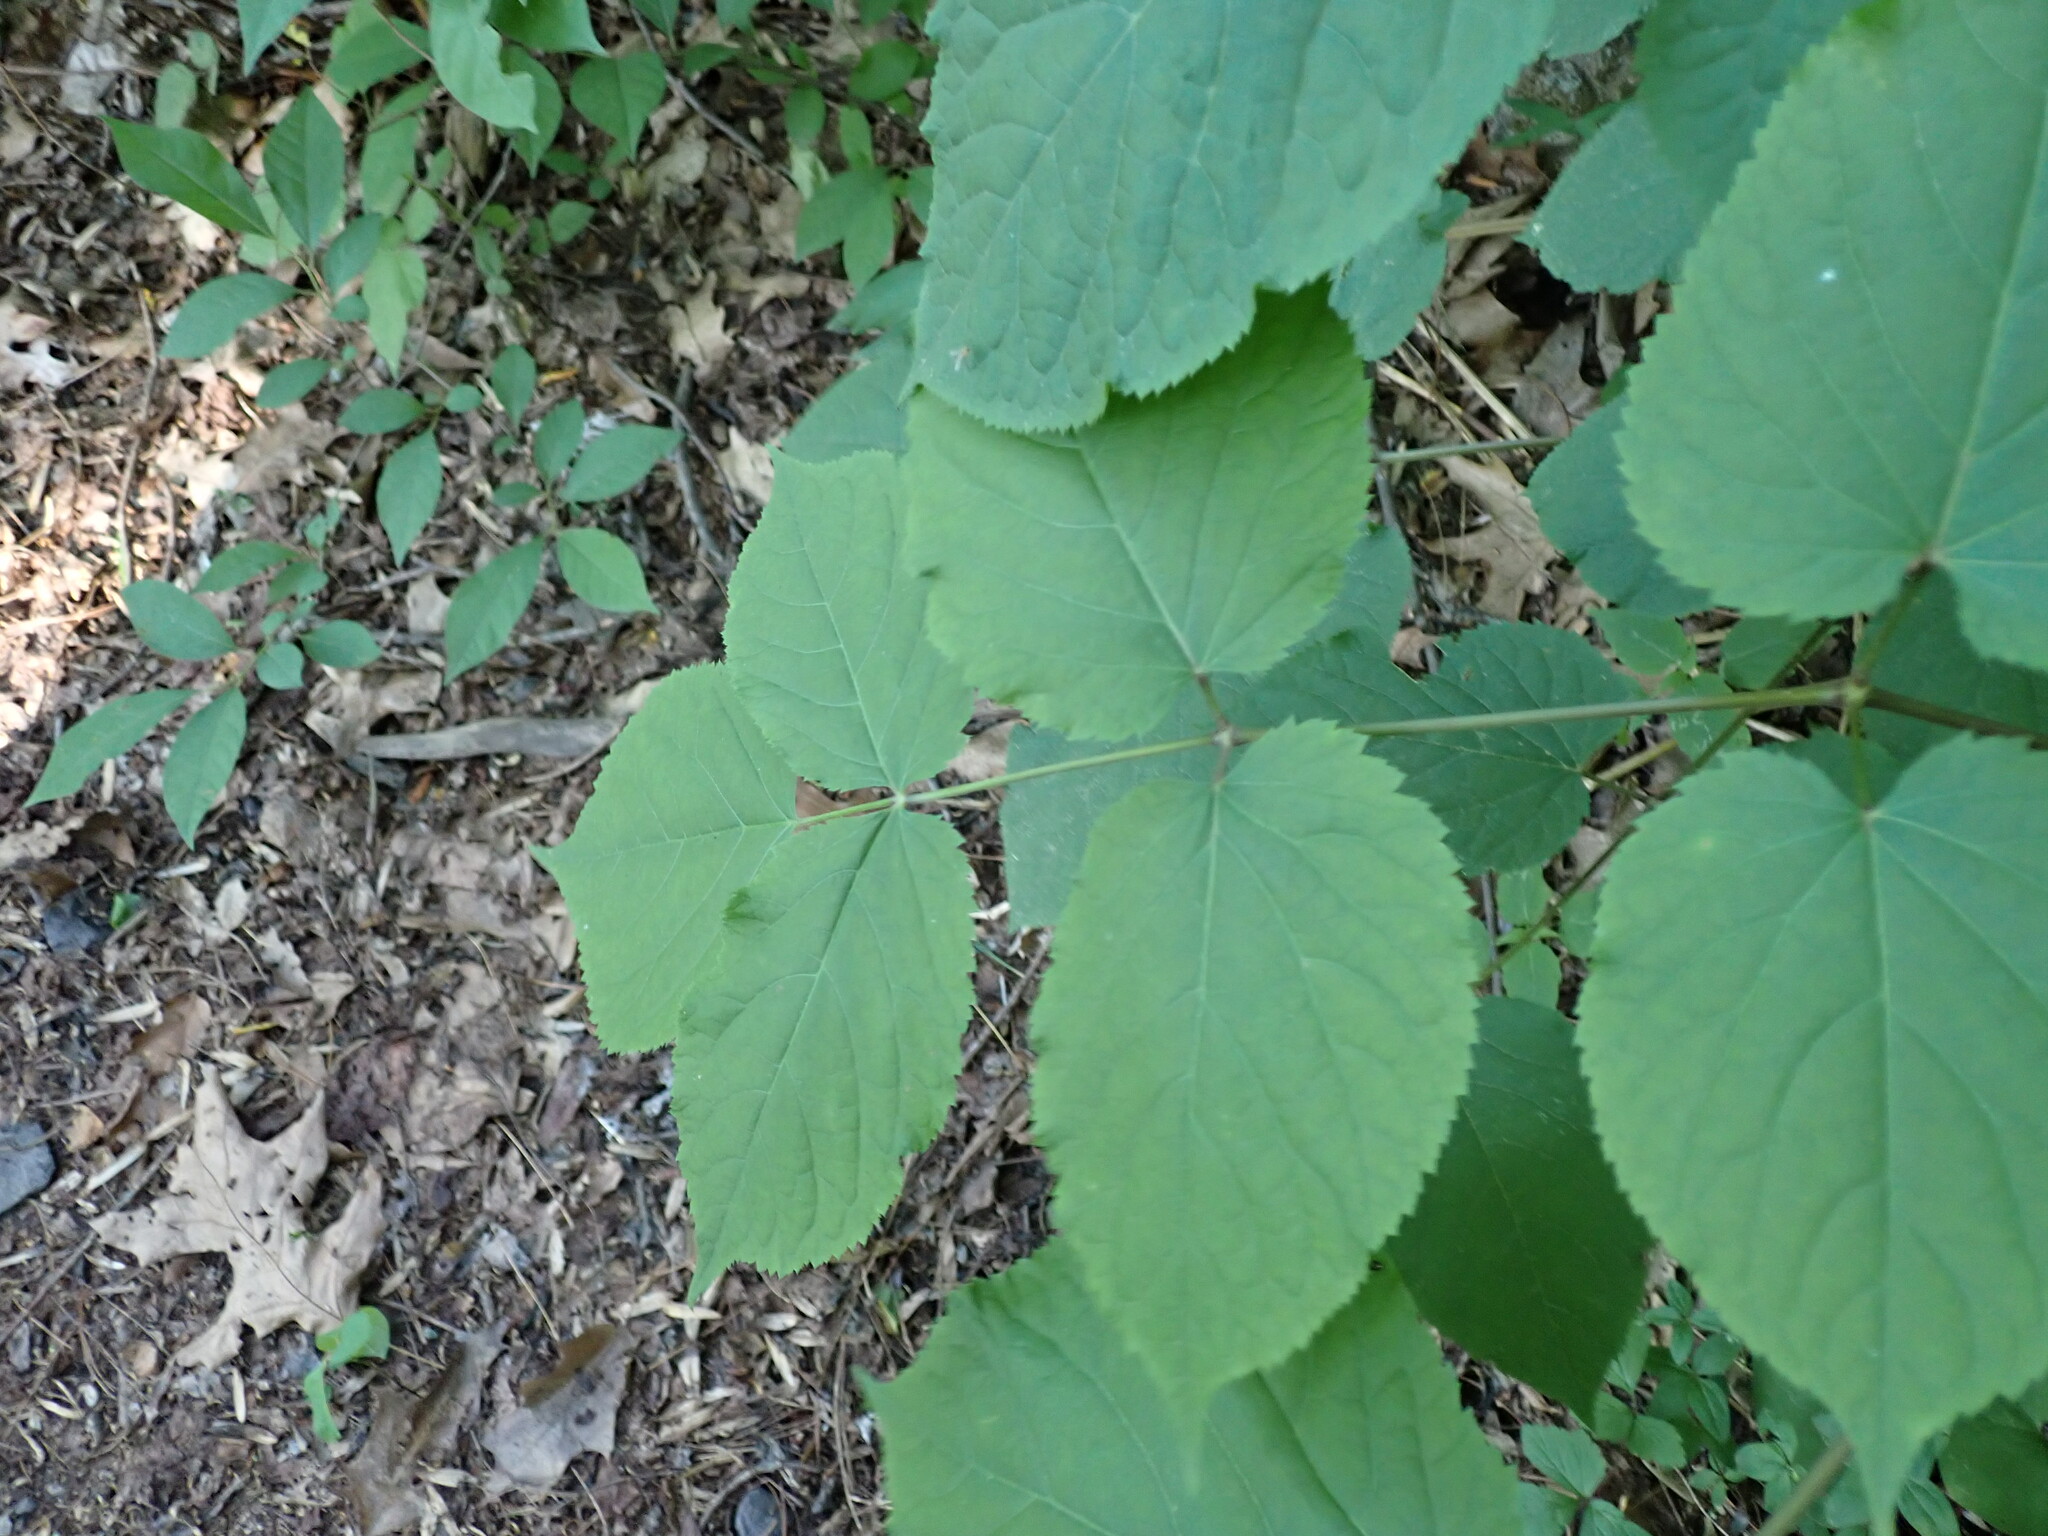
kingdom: Plantae
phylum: Tracheophyta
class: Magnoliopsida
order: Apiales
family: Araliaceae
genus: Aralia
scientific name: Aralia racemosa
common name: American-spikenard
